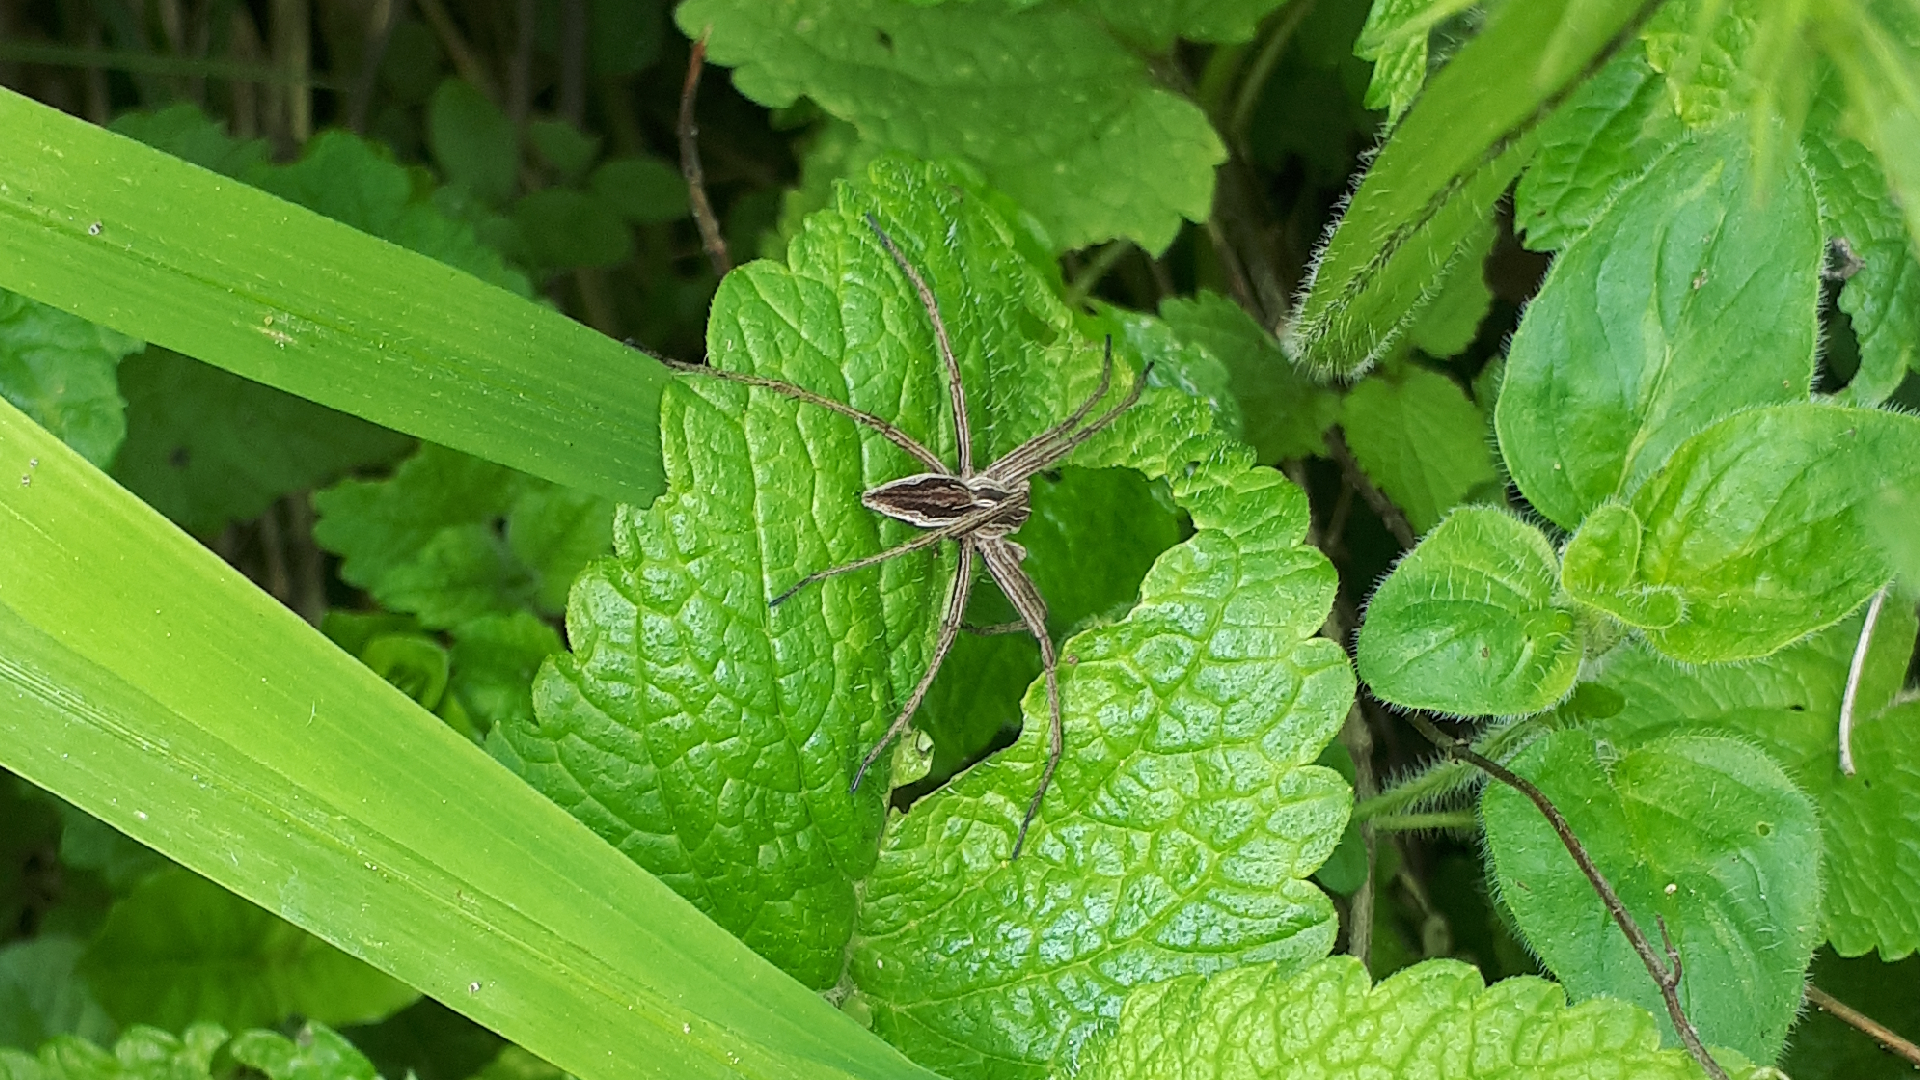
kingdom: Animalia
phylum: Arthropoda
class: Arachnida
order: Araneae
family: Pisauridae
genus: Pisaura
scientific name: Pisaura mirabilis
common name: Tent spider
